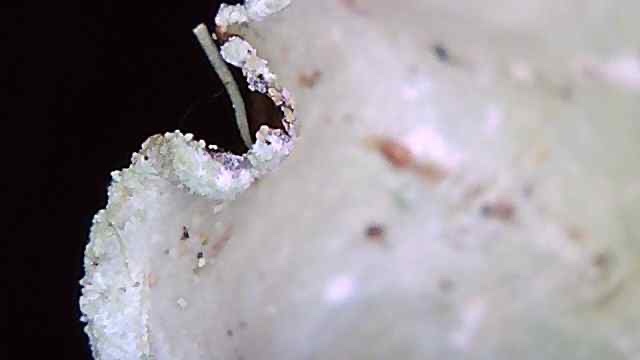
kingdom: Fungi
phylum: Ascomycota
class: Lecanoromycetes
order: Lecanorales
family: Parmeliaceae
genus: Cetrelia
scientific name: Cetrelia cetrarioides
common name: Speckled iceland lichen
